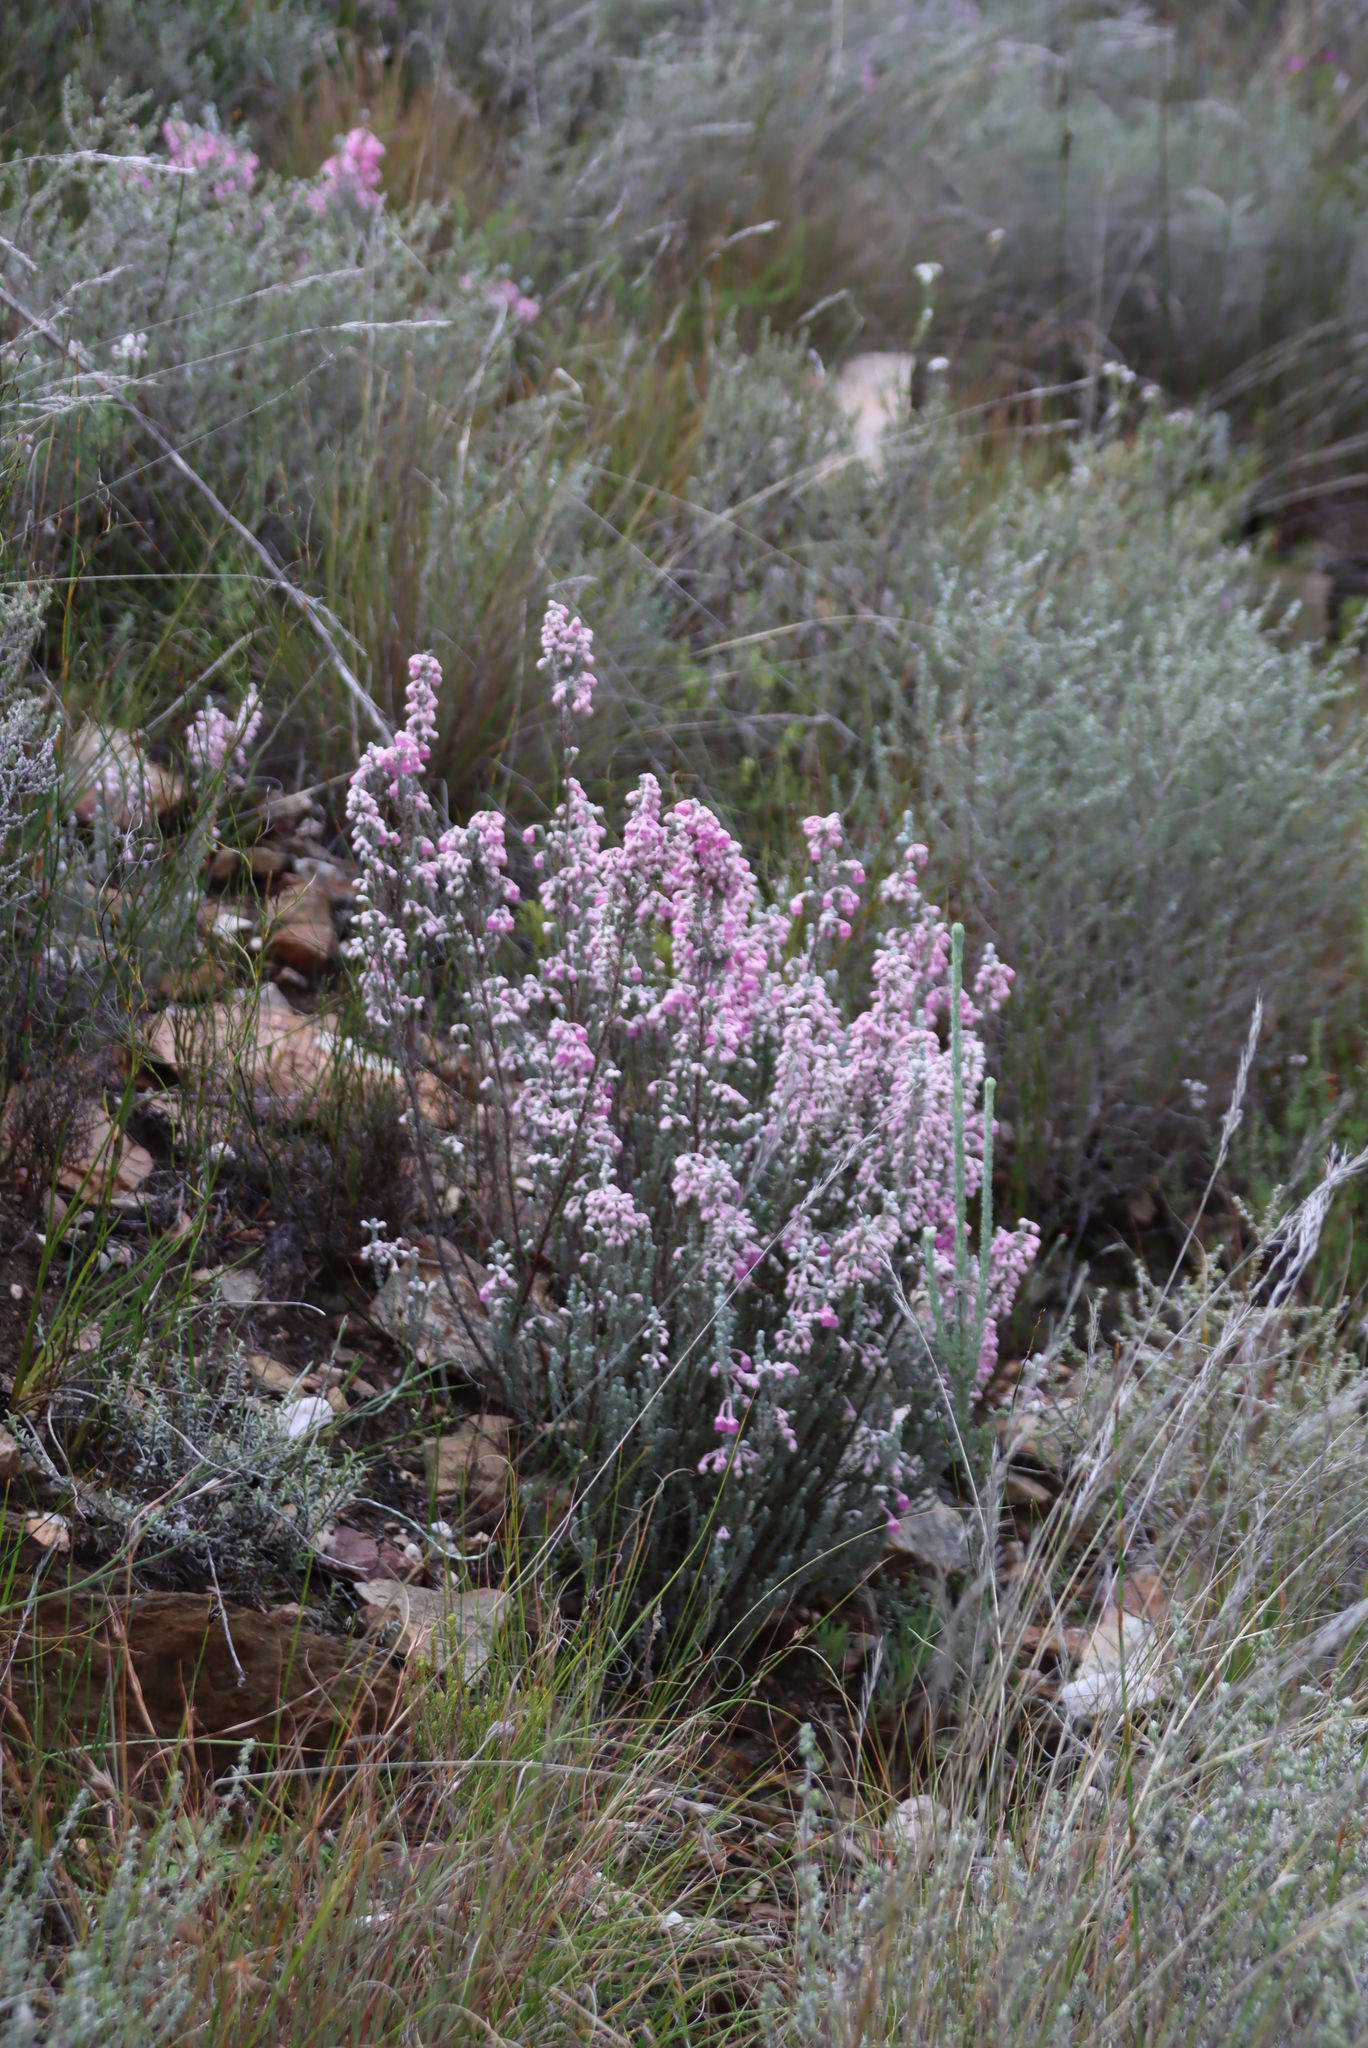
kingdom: Plantae
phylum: Tracheophyta
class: Magnoliopsida
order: Ericales
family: Ericaceae
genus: Erica
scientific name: Erica passerina
